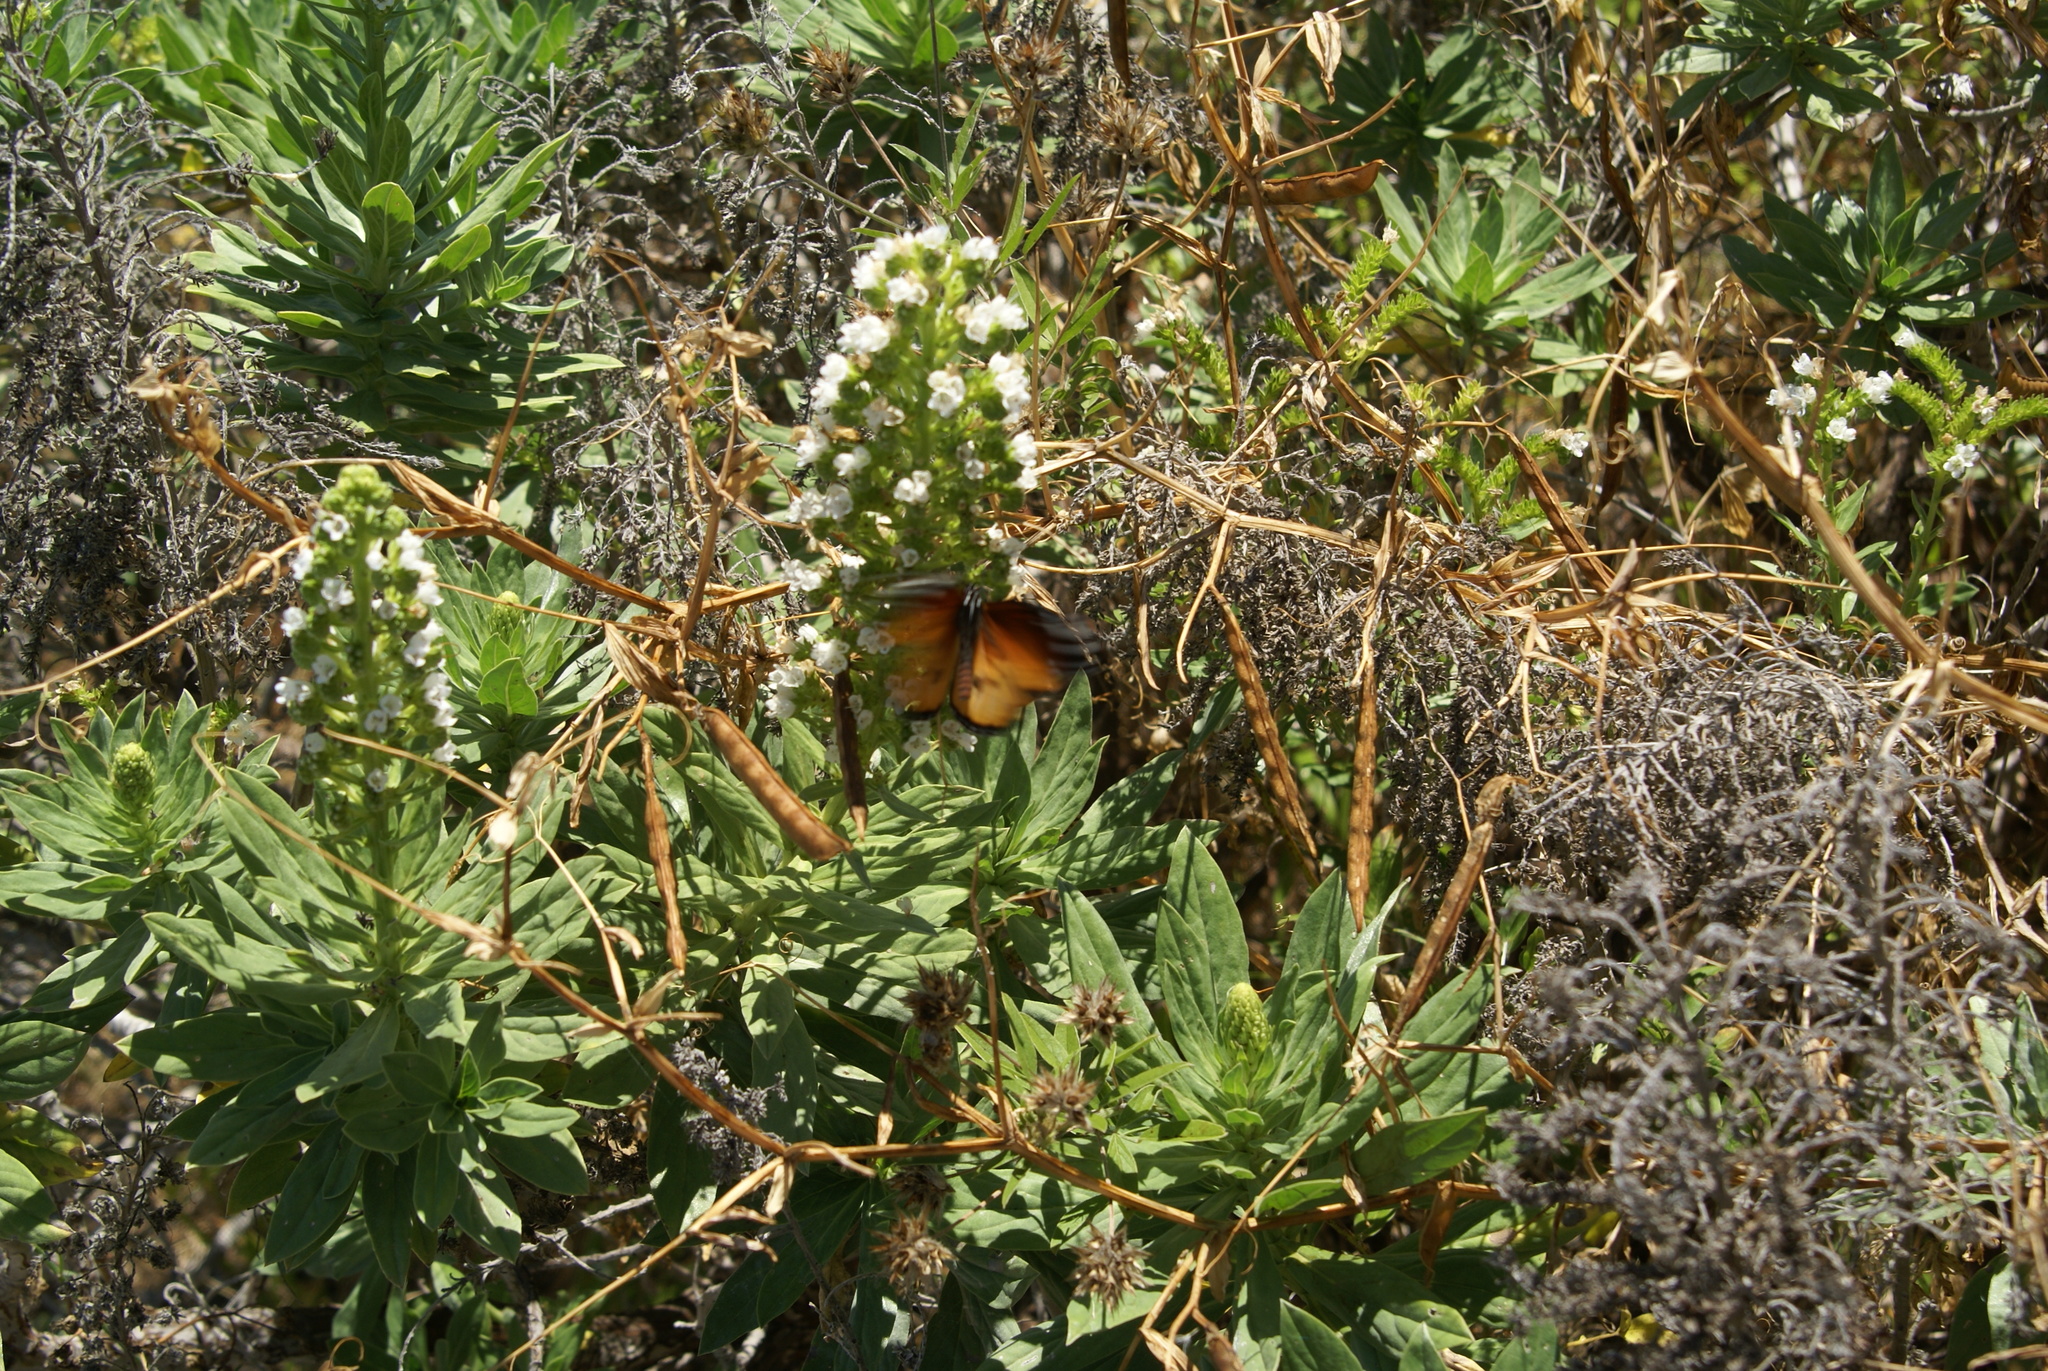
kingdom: Plantae
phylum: Tracheophyta
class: Magnoliopsida
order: Boraginales
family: Boraginaceae
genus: Echium
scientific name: Echium bethencourtii
